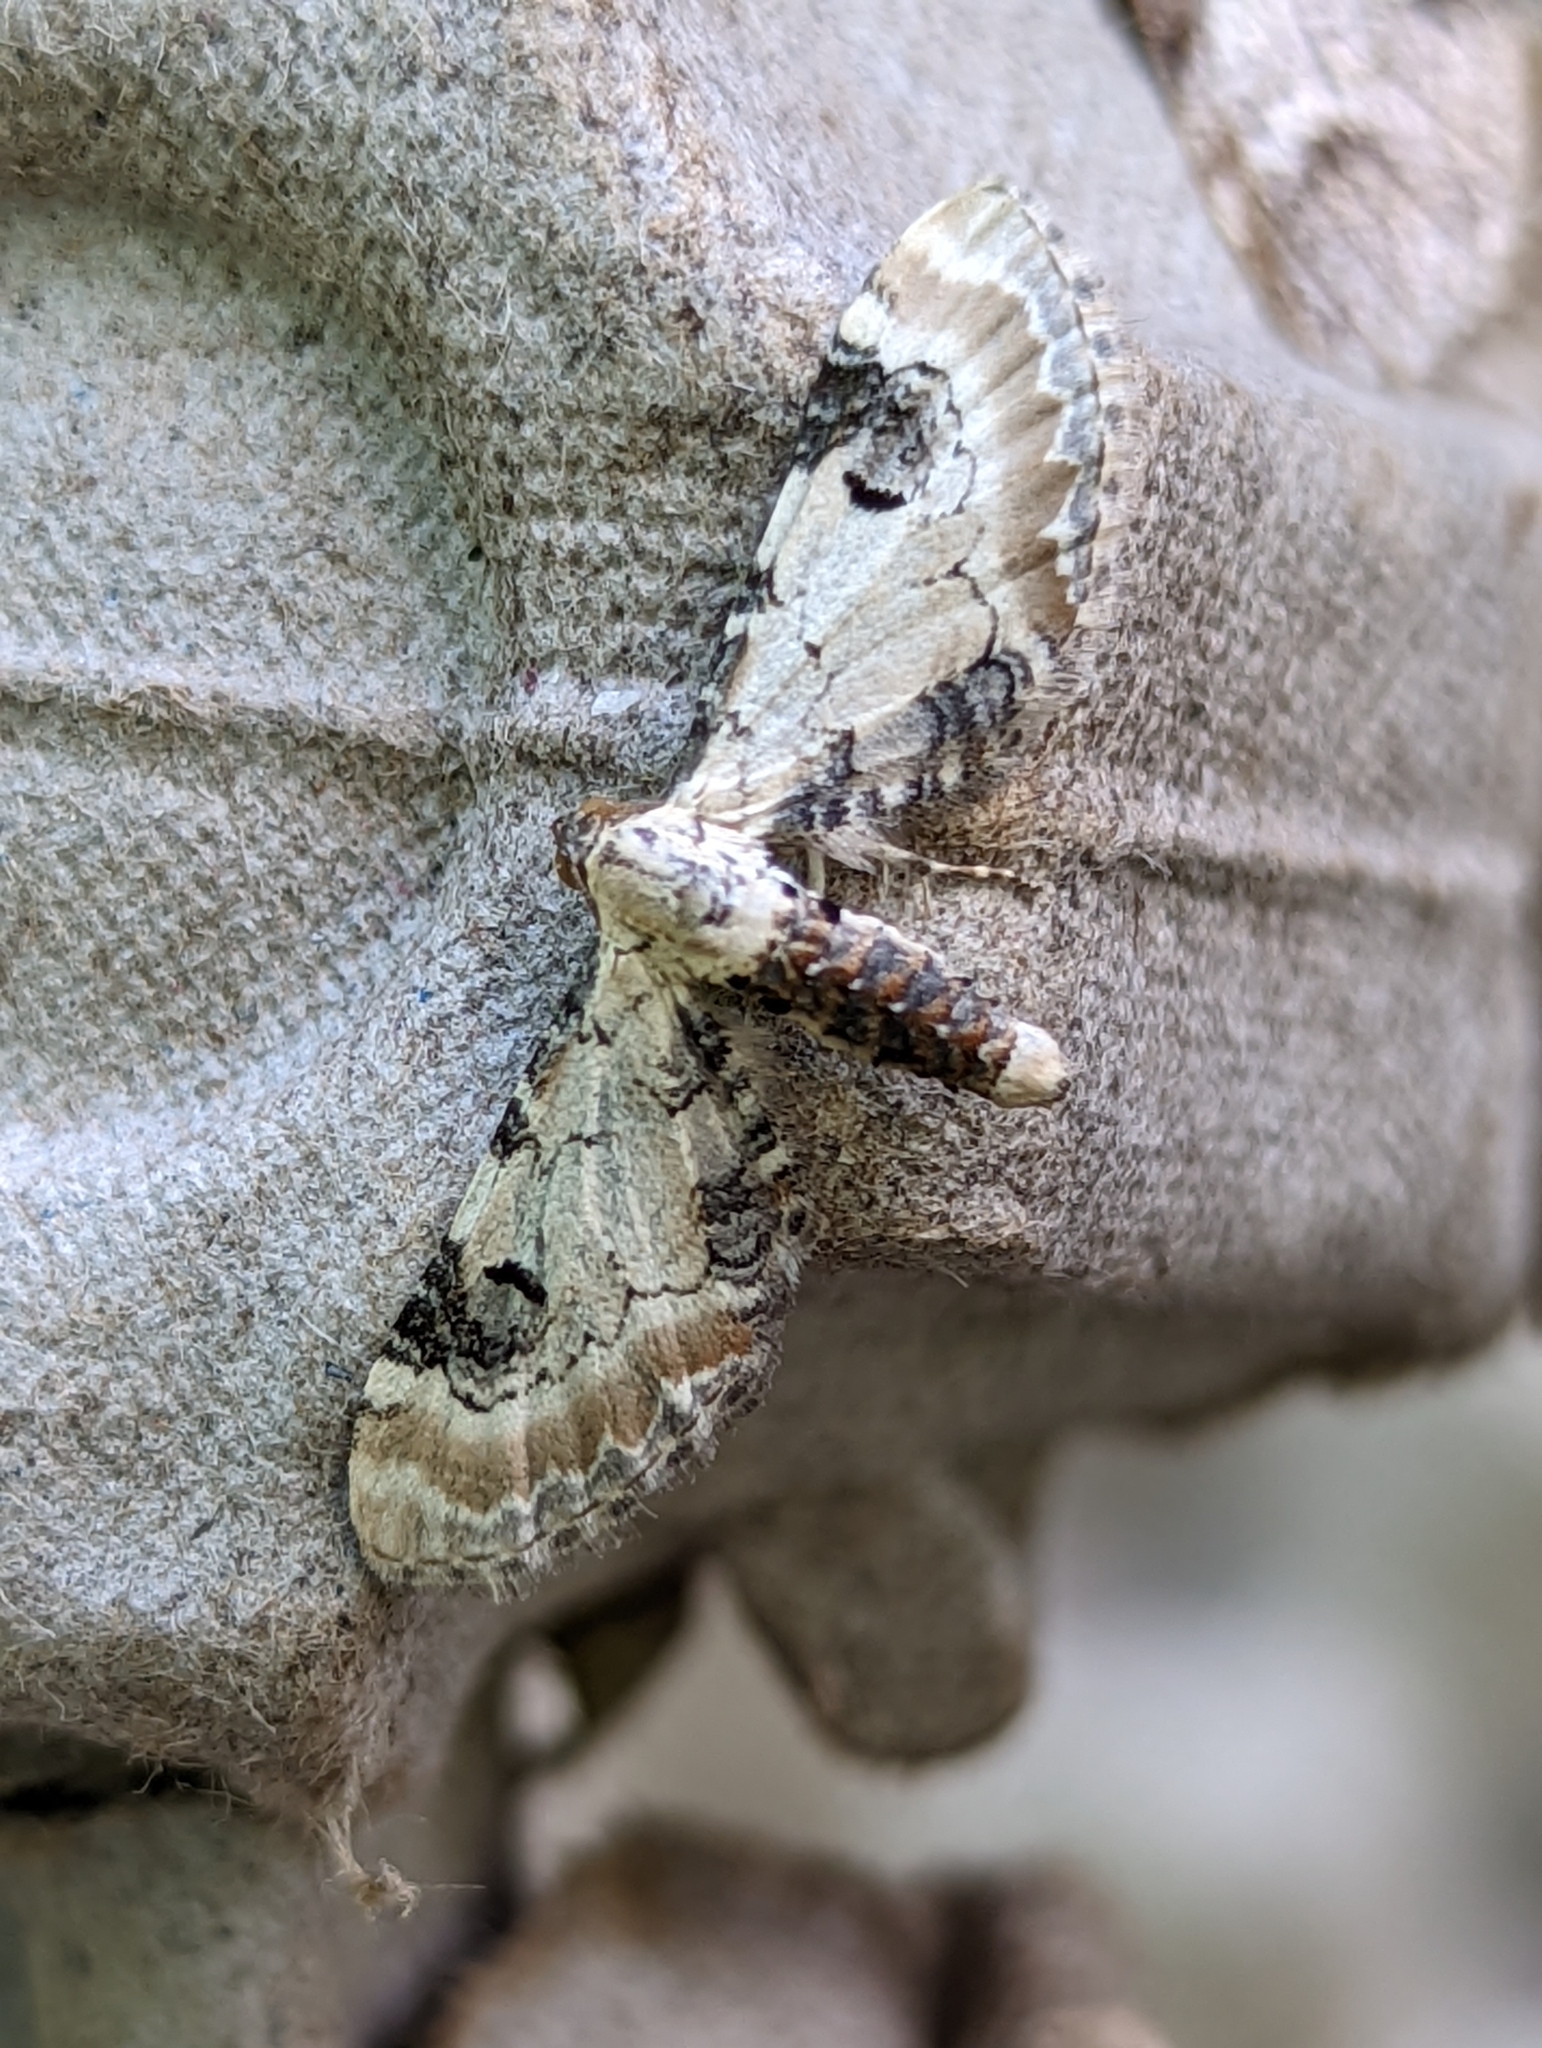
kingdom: Animalia
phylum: Arthropoda
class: Insecta
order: Lepidoptera
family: Geometridae
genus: Eupithecia
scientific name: Eupithecia centaureata
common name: Lime-speck pug
